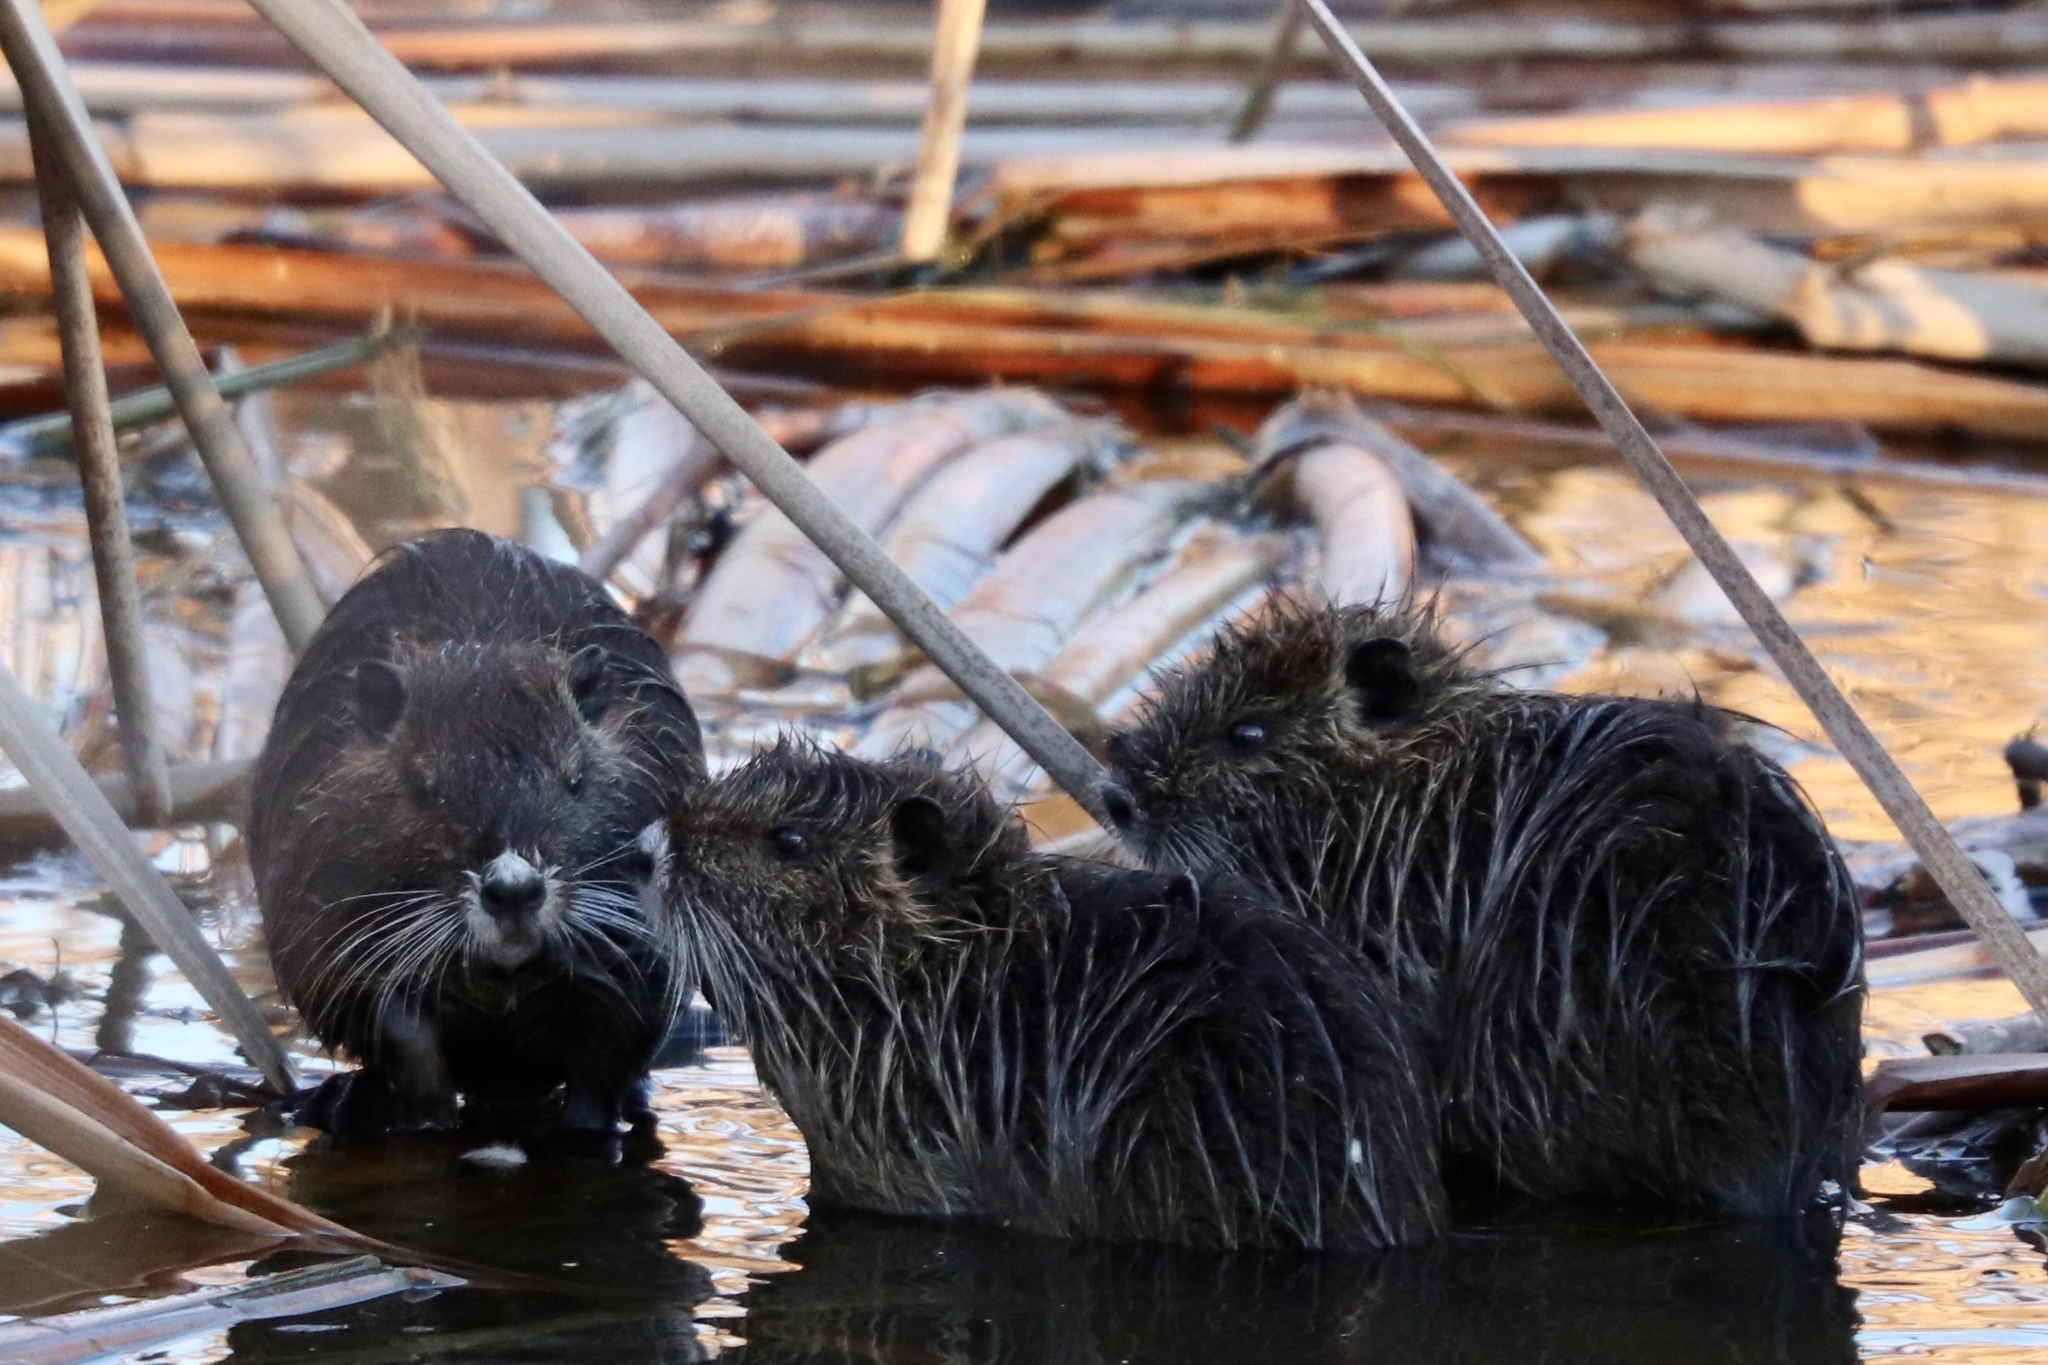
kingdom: Animalia
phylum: Chordata
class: Mammalia
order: Rodentia
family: Myocastoridae
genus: Myocastor
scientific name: Myocastor coypus
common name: Coypu
